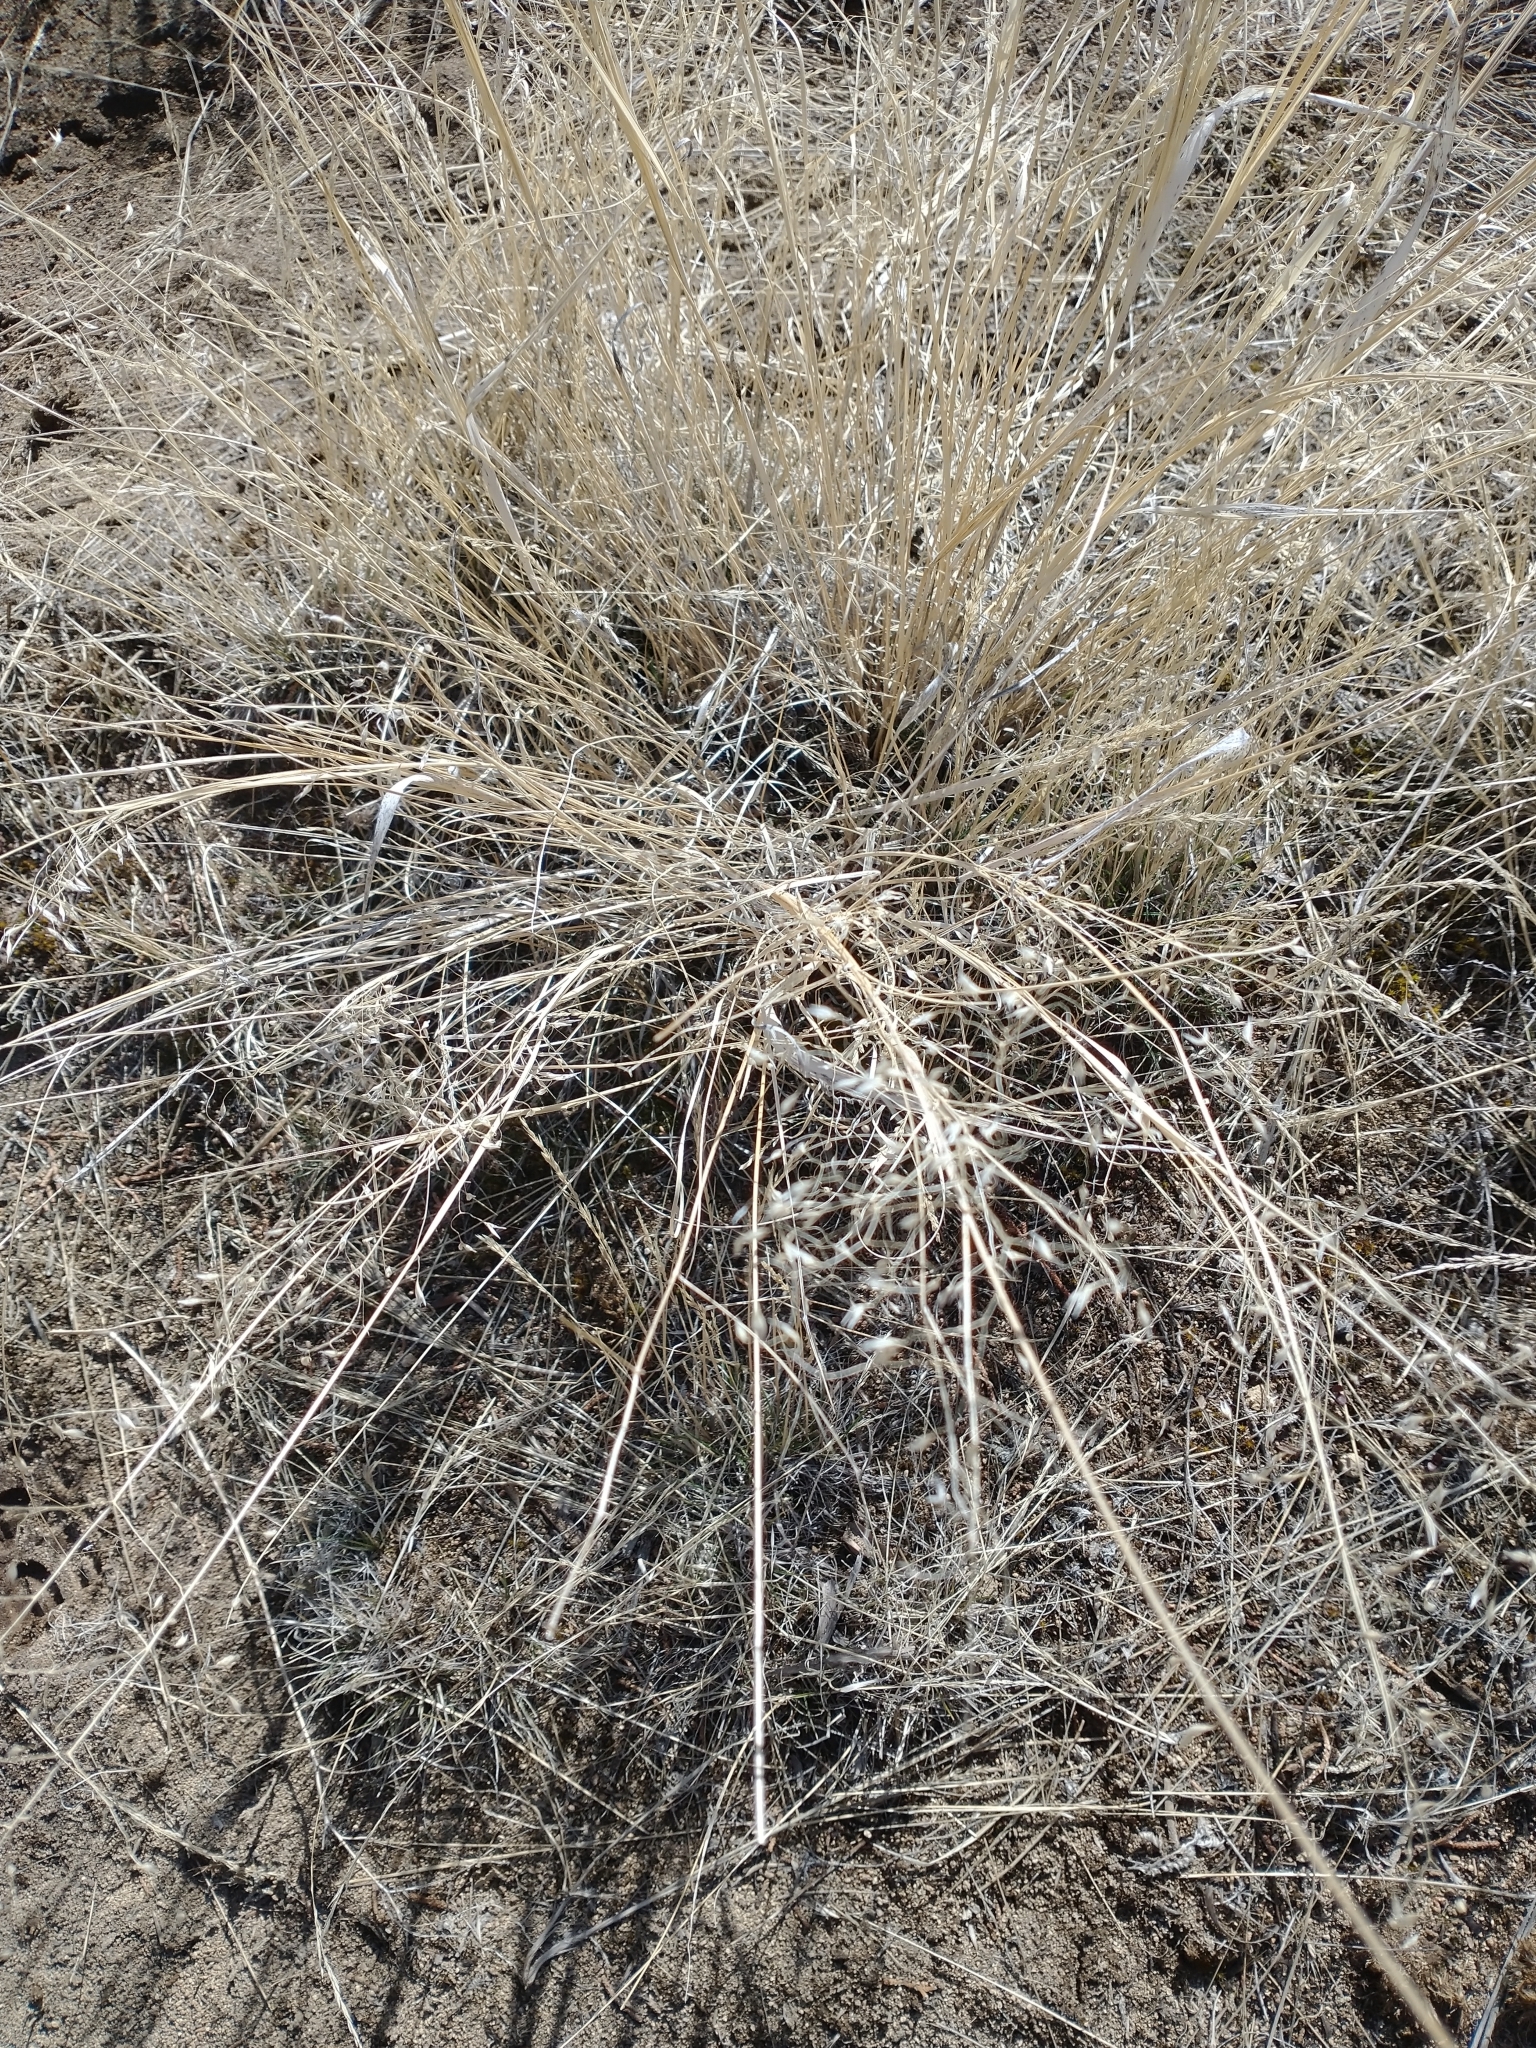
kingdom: Plantae
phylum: Tracheophyta
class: Liliopsida
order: Poales
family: Poaceae
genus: Eriocoma
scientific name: Eriocoma hymenoides
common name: Indian mountain ricegrass
